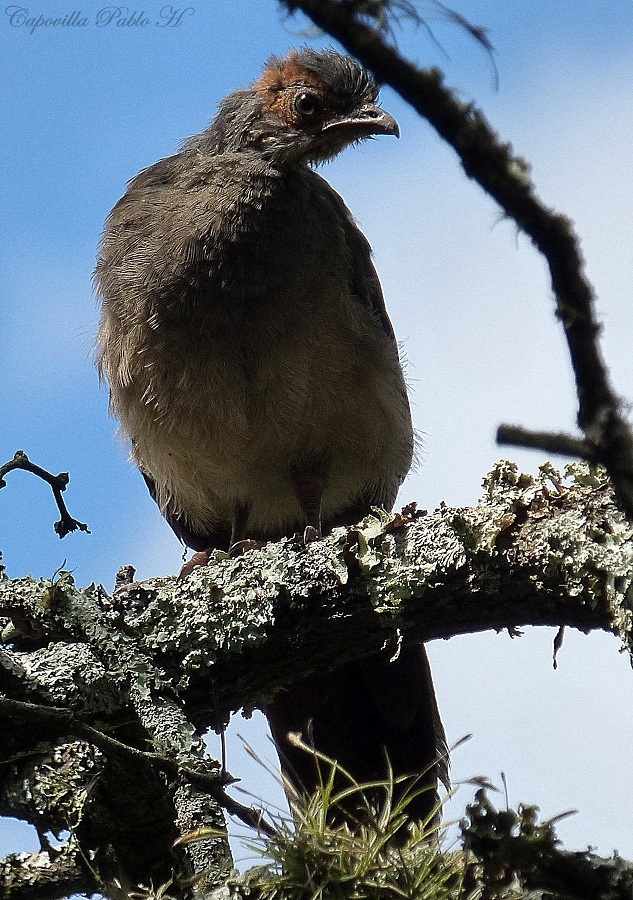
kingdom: Animalia
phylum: Chordata
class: Aves
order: Galliformes
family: Cracidae
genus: Ortalis
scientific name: Ortalis canicollis
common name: Chaco chachalaca
